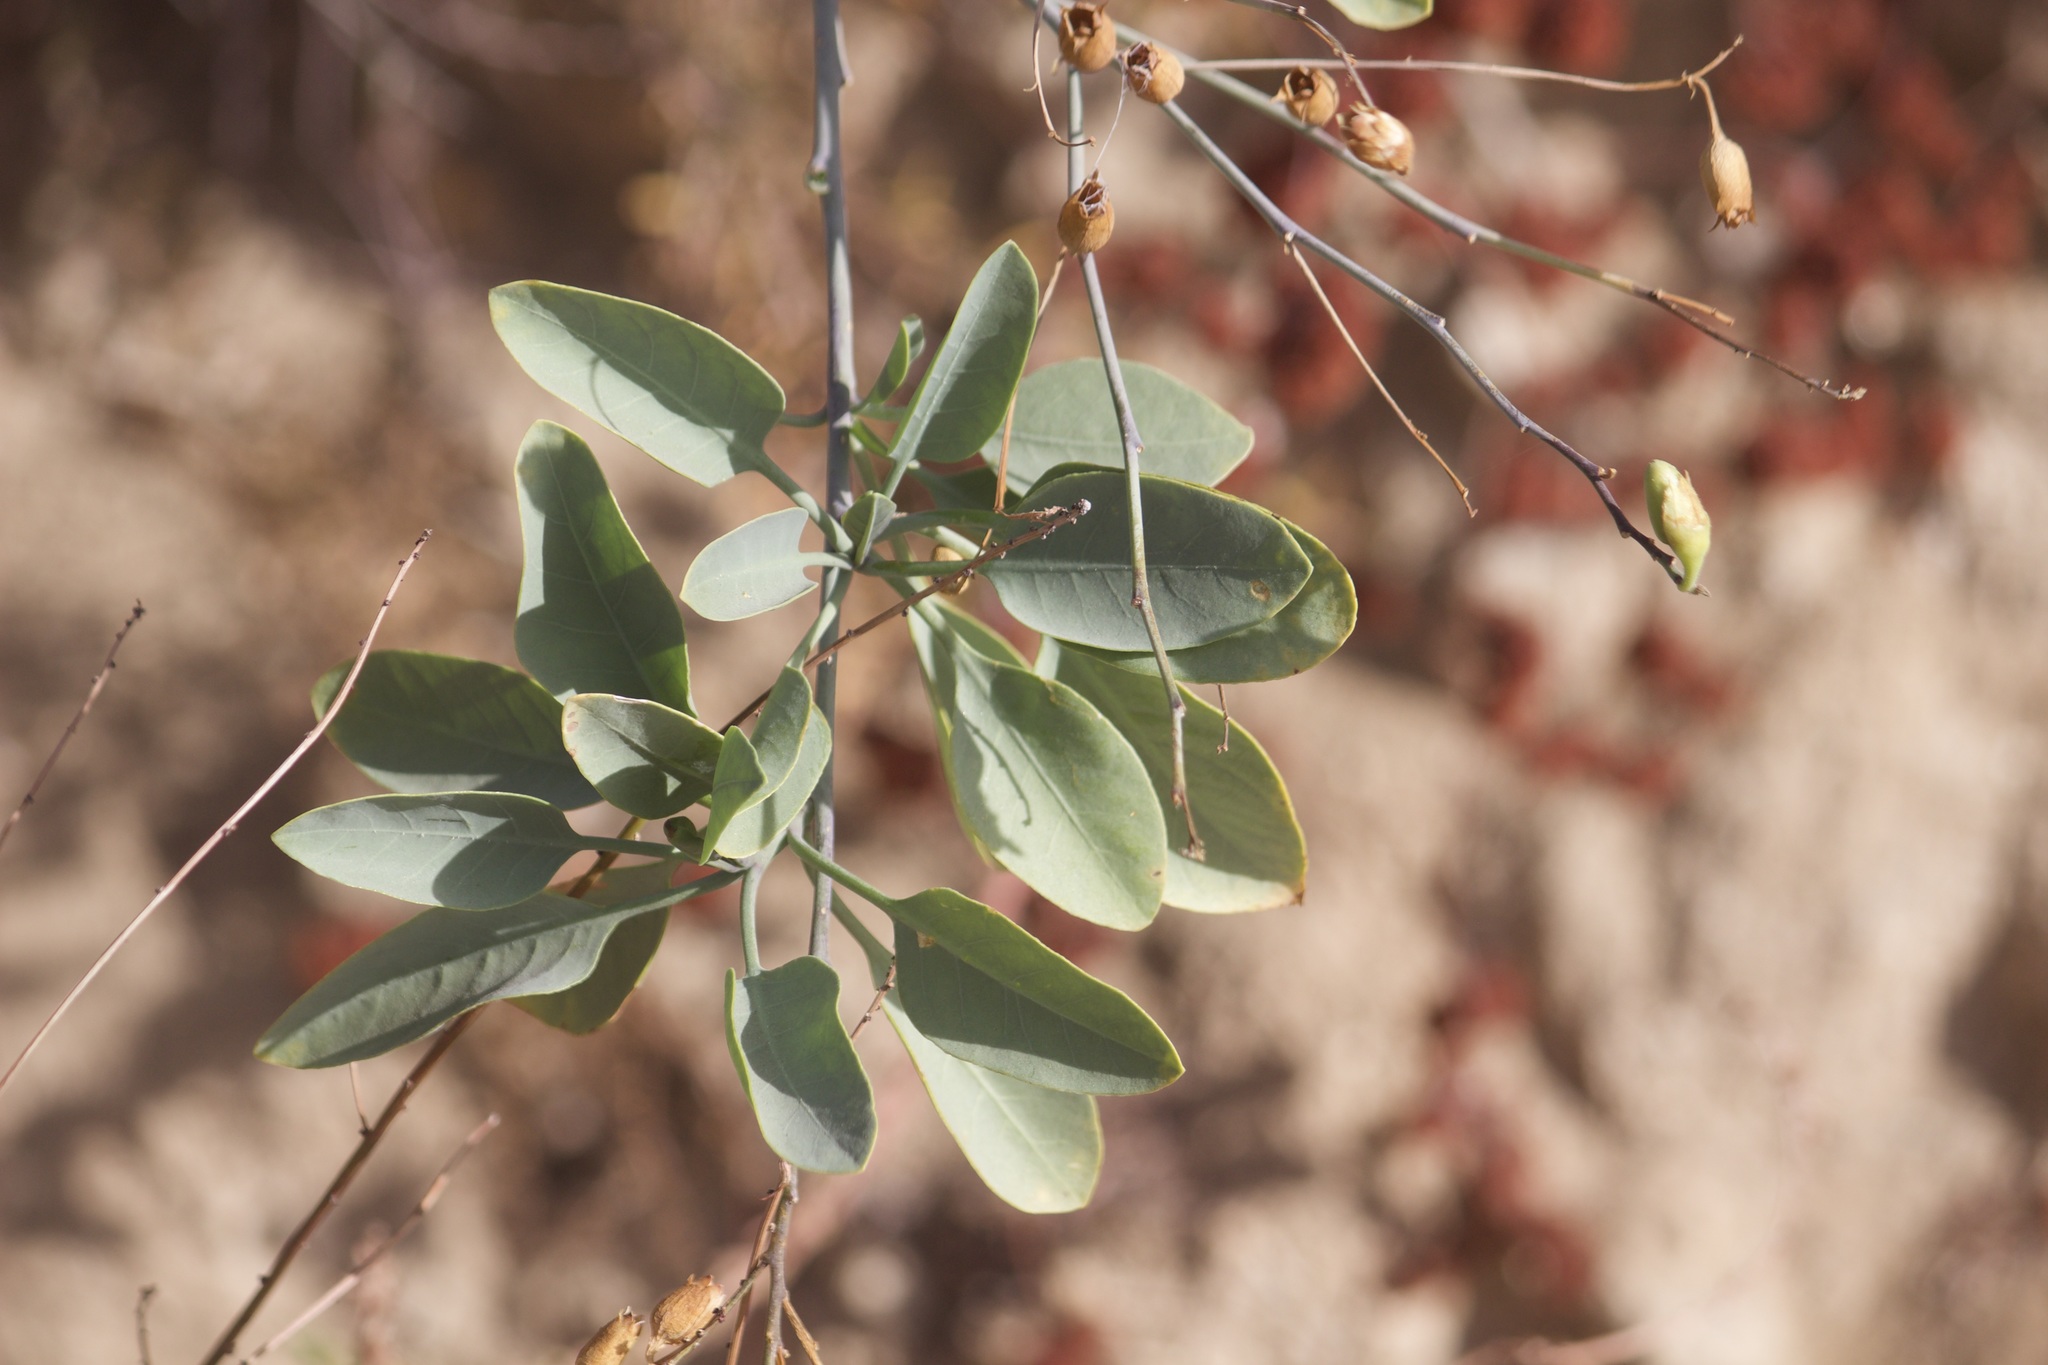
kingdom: Plantae
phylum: Tracheophyta
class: Magnoliopsida
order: Solanales
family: Solanaceae
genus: Nicotiana
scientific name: Nicotiana glauca
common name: Tree tobacco
